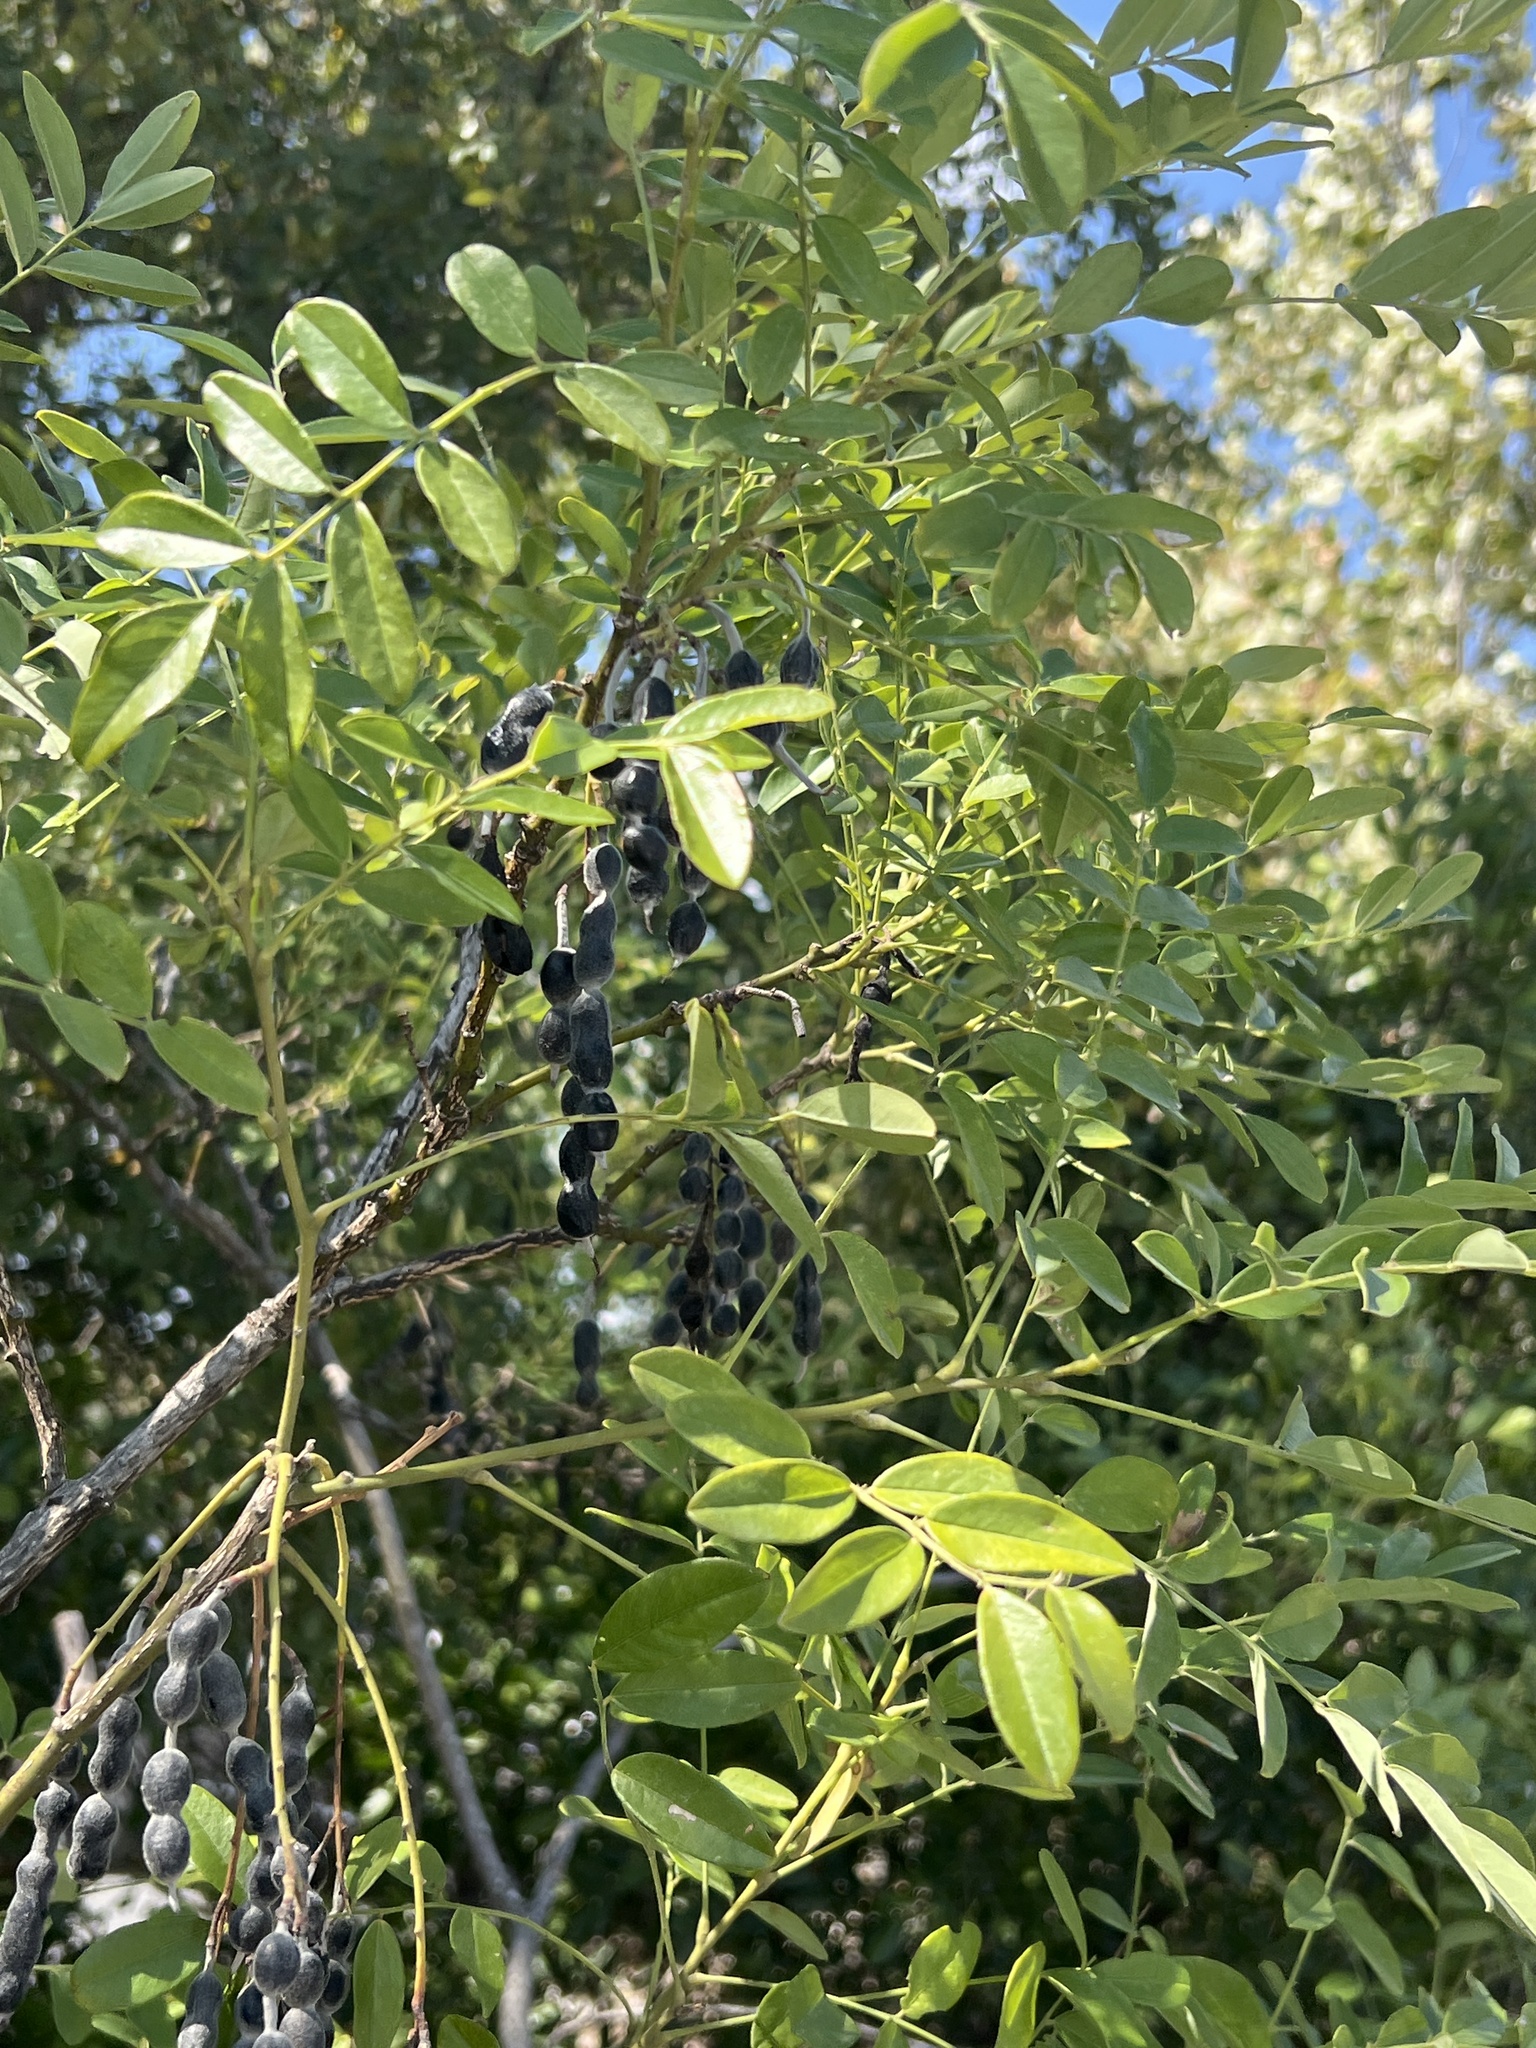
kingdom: Plantae
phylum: Tracheophyta
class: Magnoliopsida
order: Fabales
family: Fabaceae
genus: Styphnolobium
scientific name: Styphnolobium affine
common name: Texas sophora
